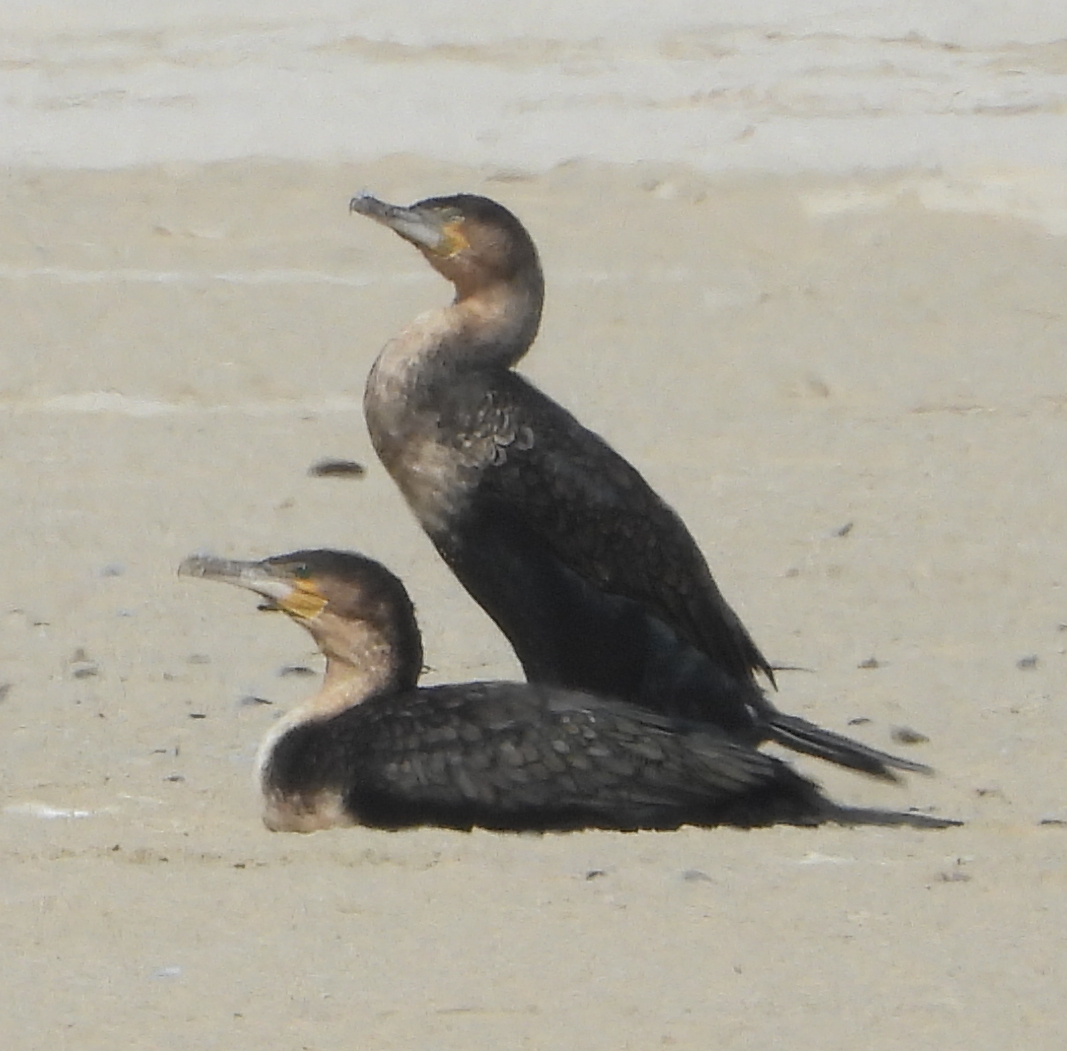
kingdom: Animalia
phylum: Chordata
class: Aves
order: Suliformes
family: Phalacrocoracidae
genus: Phalacrocorax
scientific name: Phalacrocorax carbo
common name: Great cormorant
